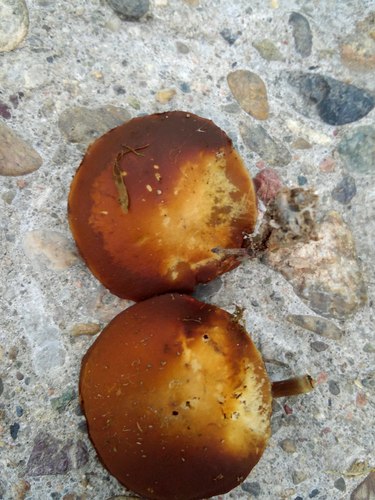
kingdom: Fungi
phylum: Basidiomycota
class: Agaricomycetes
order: Agaricales
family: Strophariaceae
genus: Pholiota
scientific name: Pholiota lignicola
